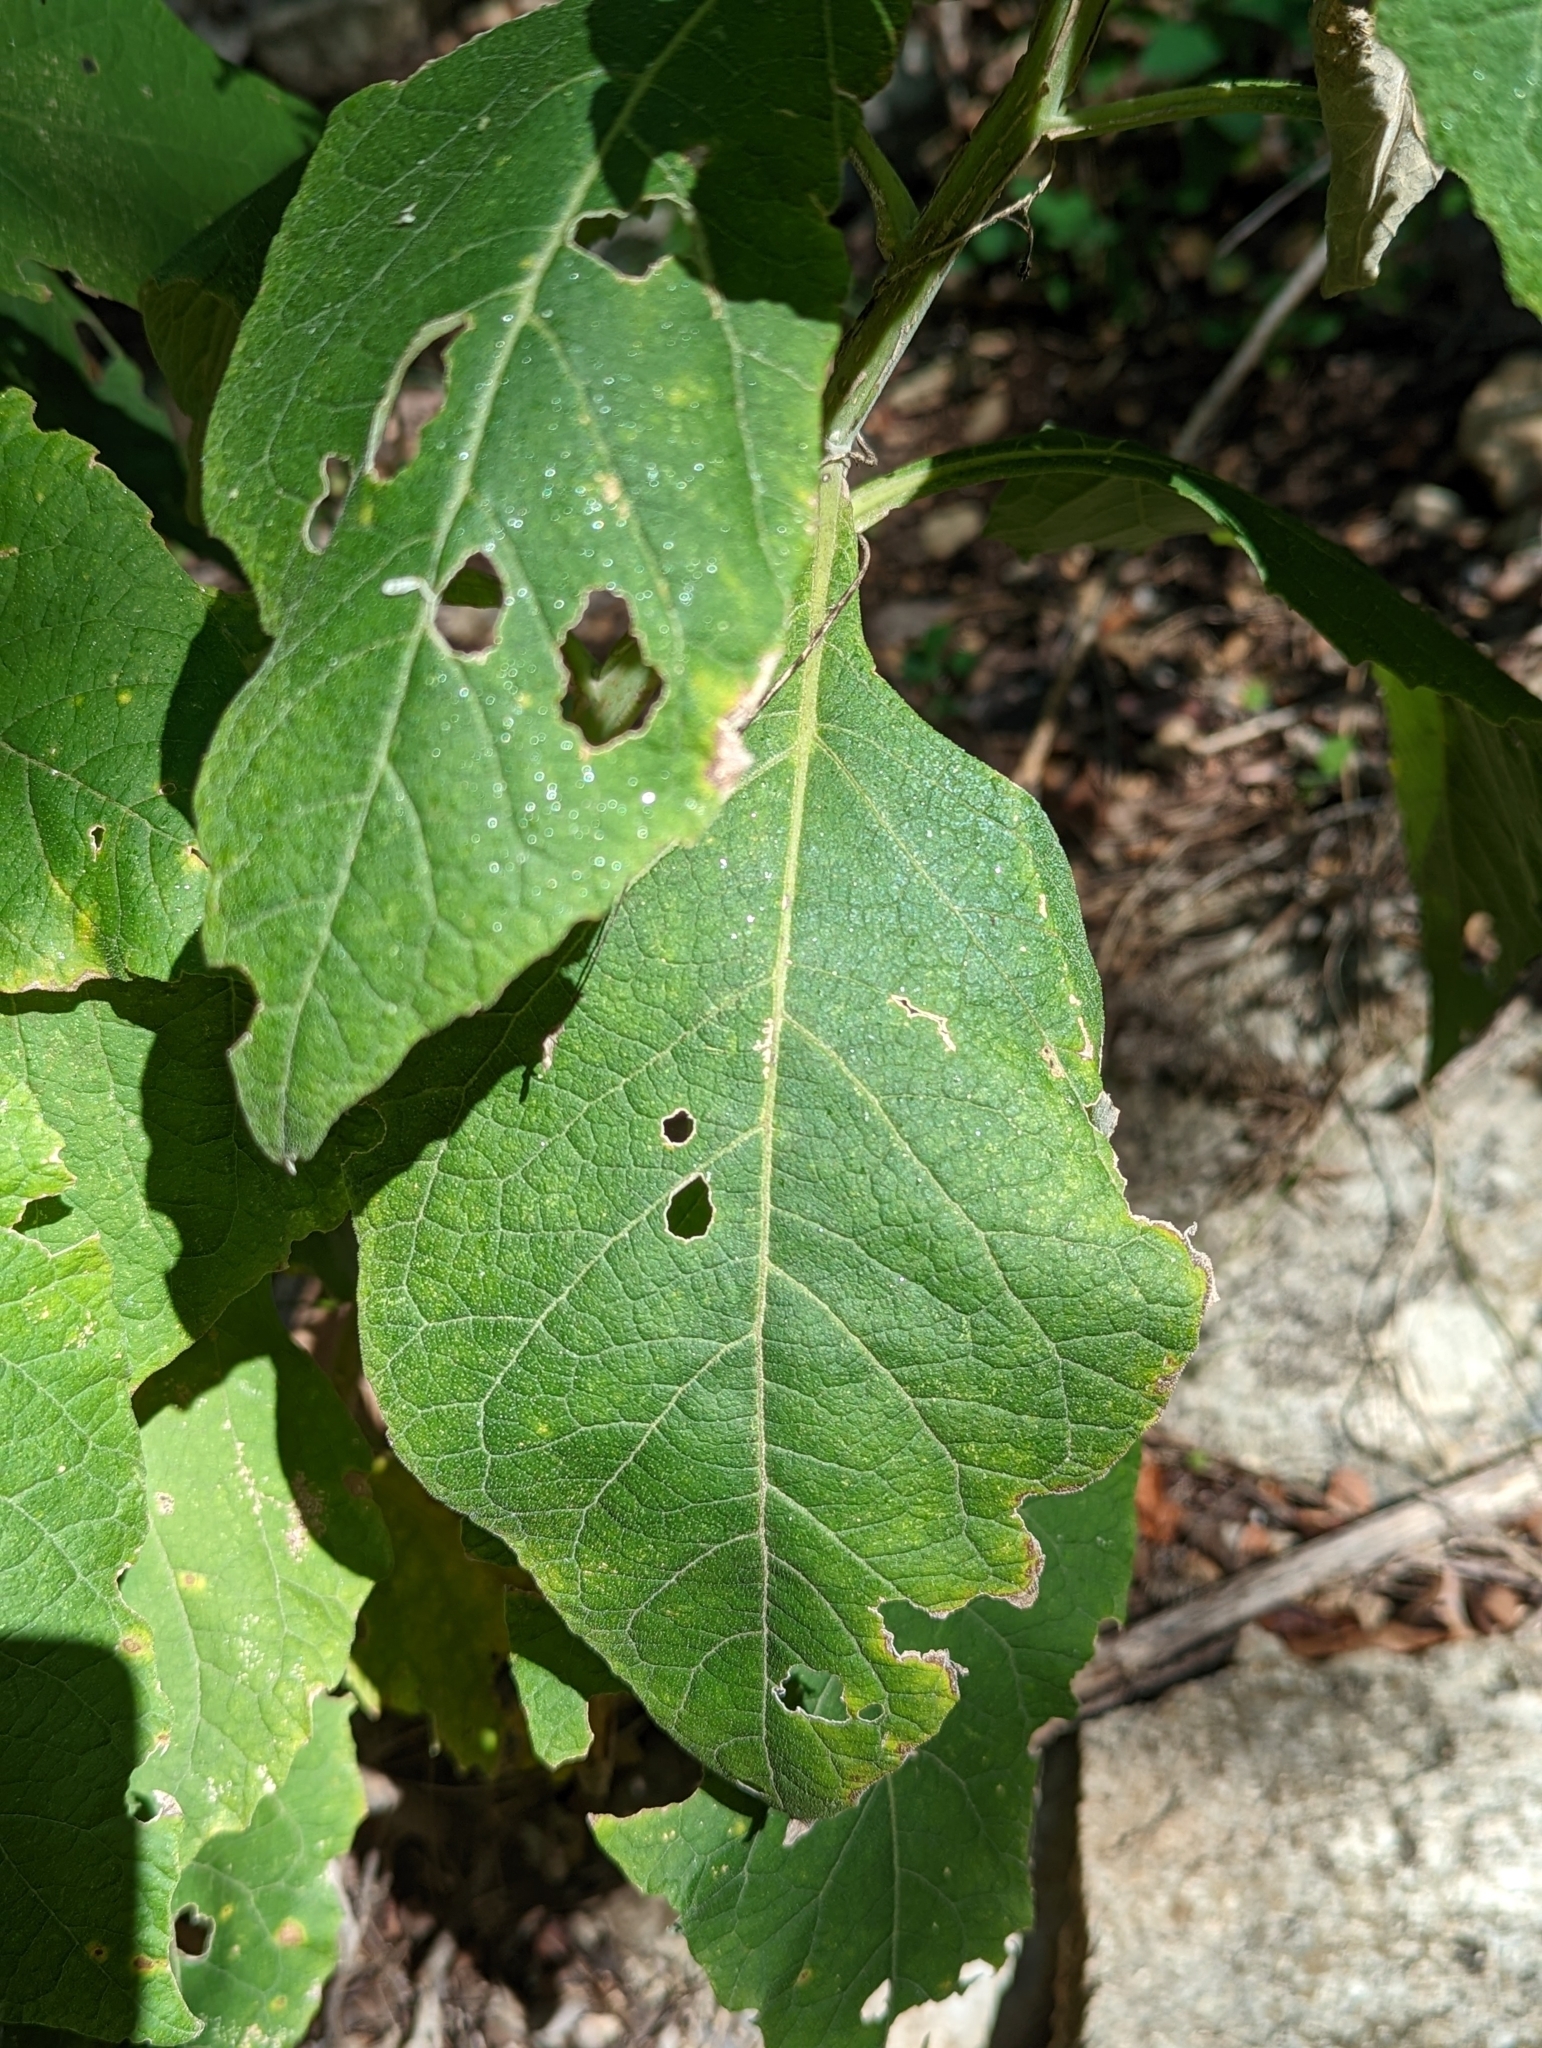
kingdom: Plantae
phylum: Tracheophyta
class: Magnoliopsida
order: Asterales
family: Asteraceae
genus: Verbesina
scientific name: Verbesina virginica
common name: Frostweed
